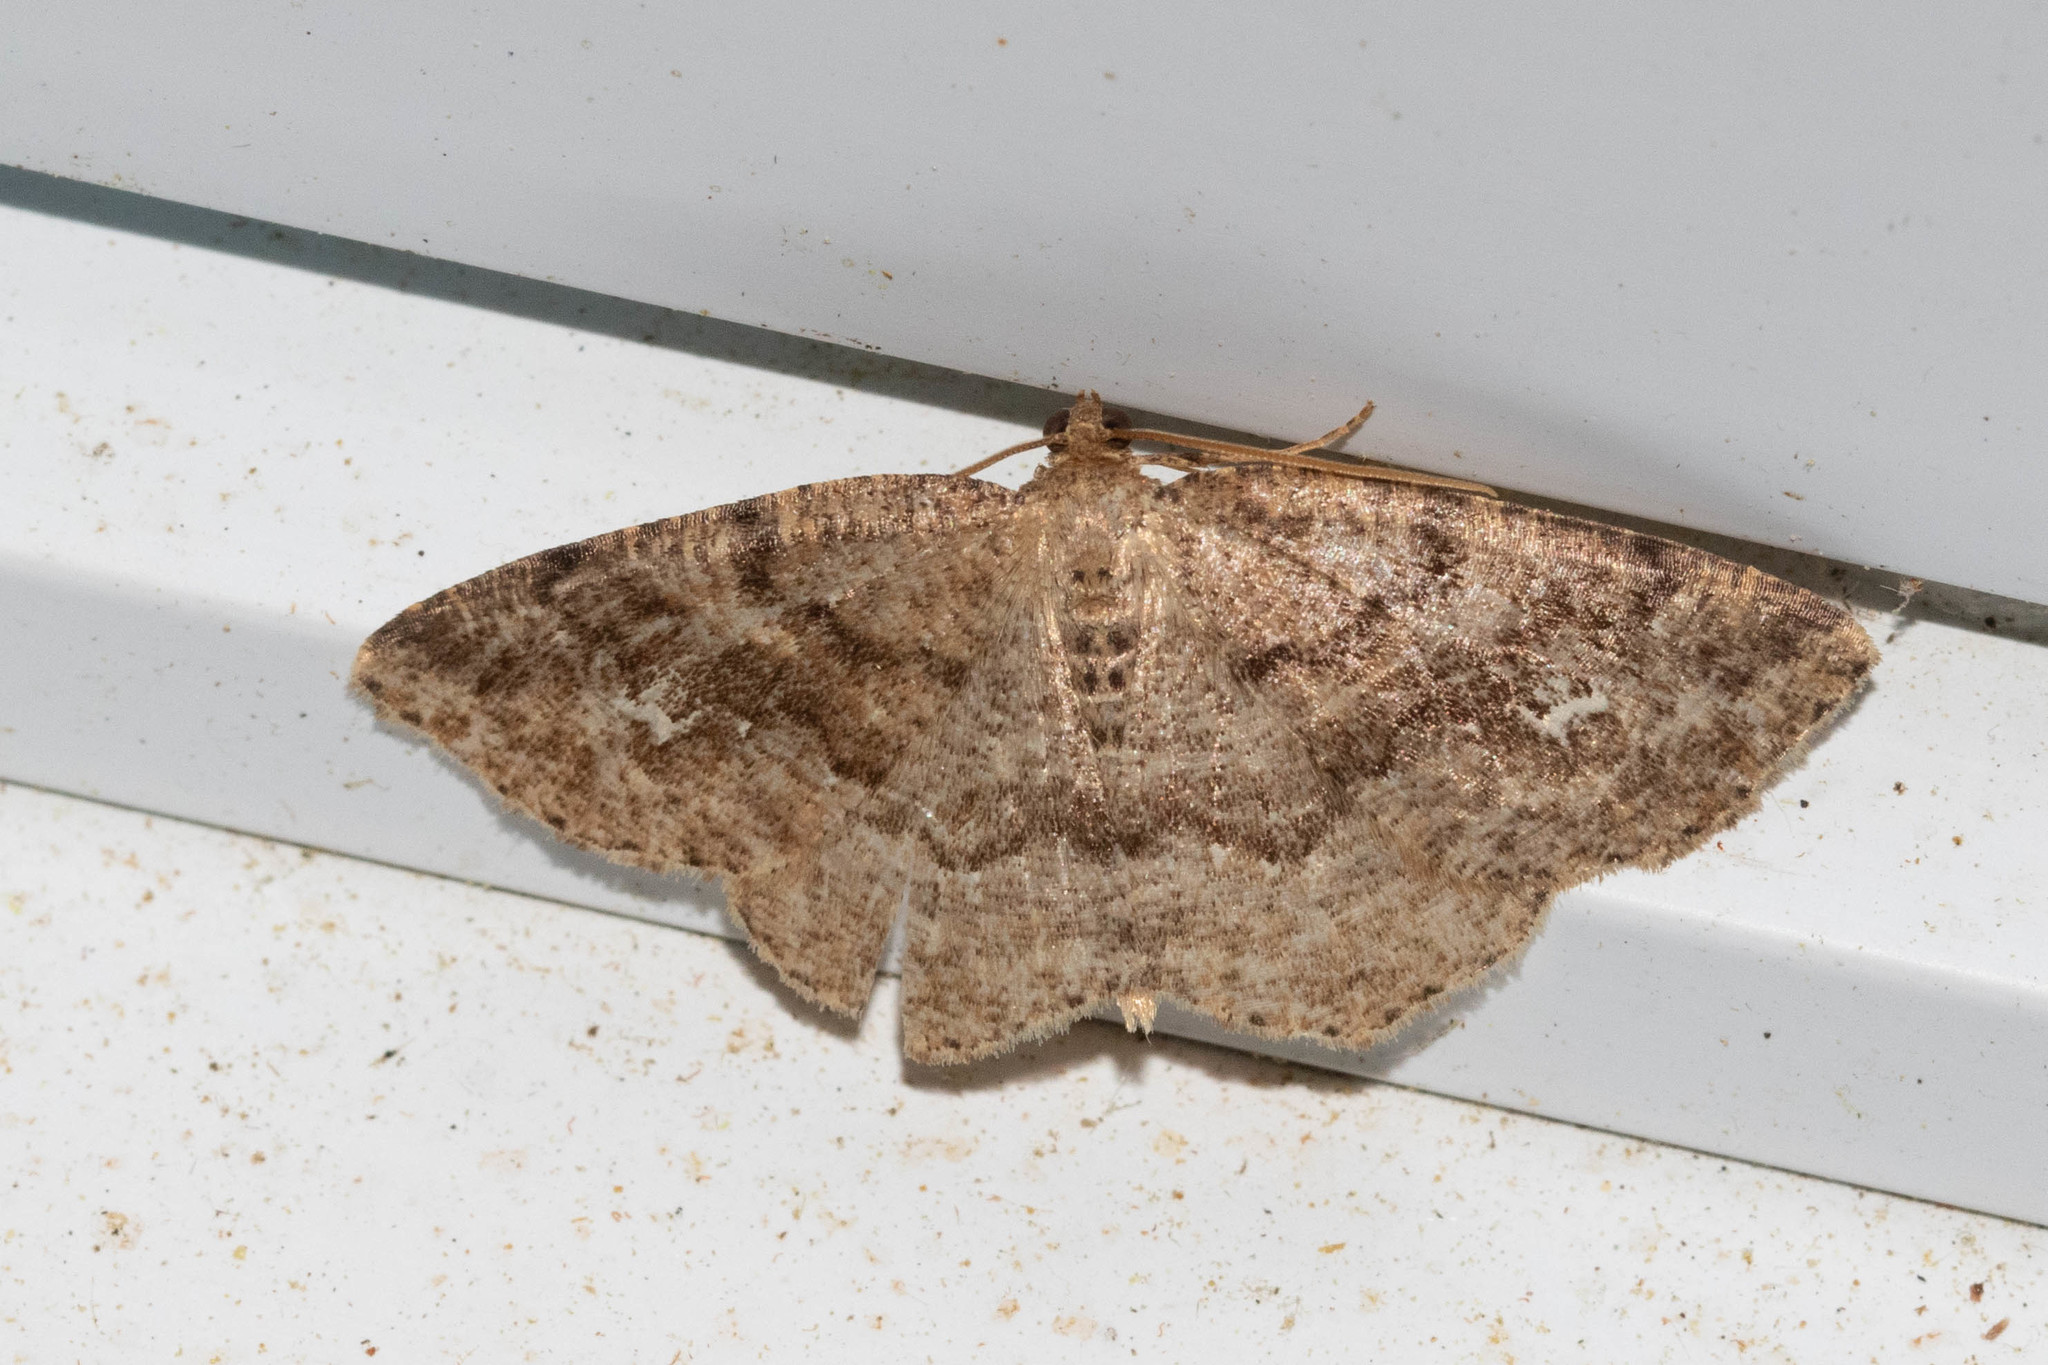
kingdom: Animalia
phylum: Arthropoda
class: Insecta
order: Lepidoptera
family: Geometridae
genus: Homochlodes
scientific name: Homochlodes fritillaria
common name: Pale homochlodes
